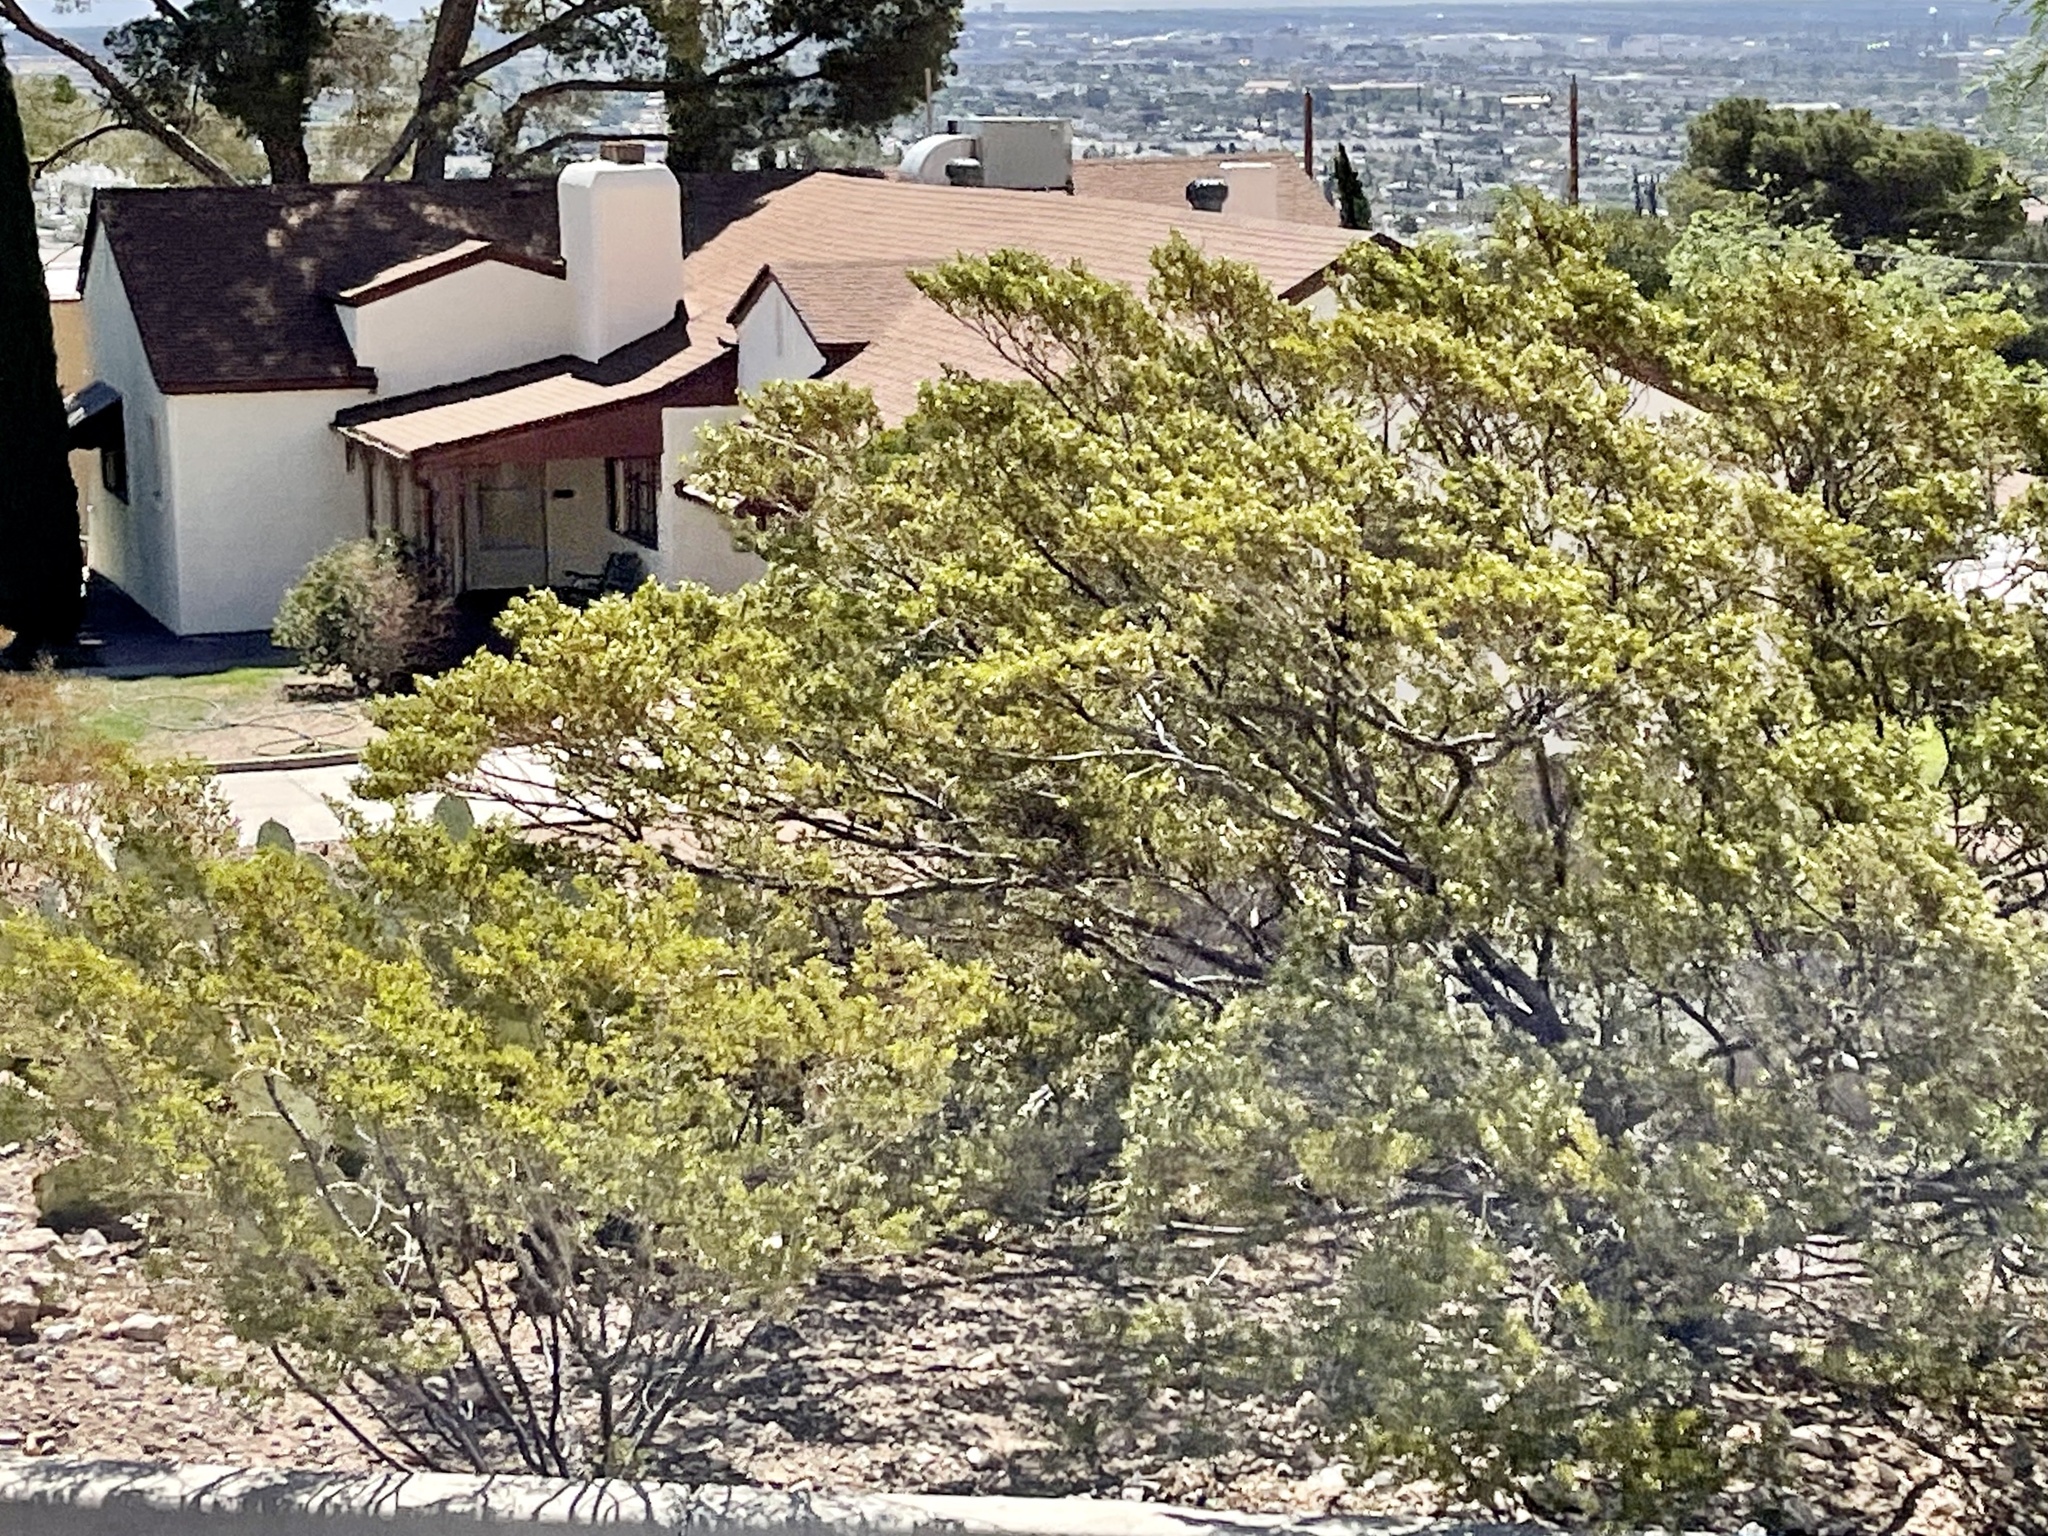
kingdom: Plantae
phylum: Tracheophyta
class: Magnoliopsida
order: Zygophyllales
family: Zygophyllaceae
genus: Larrea
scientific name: Larrea tridentata
